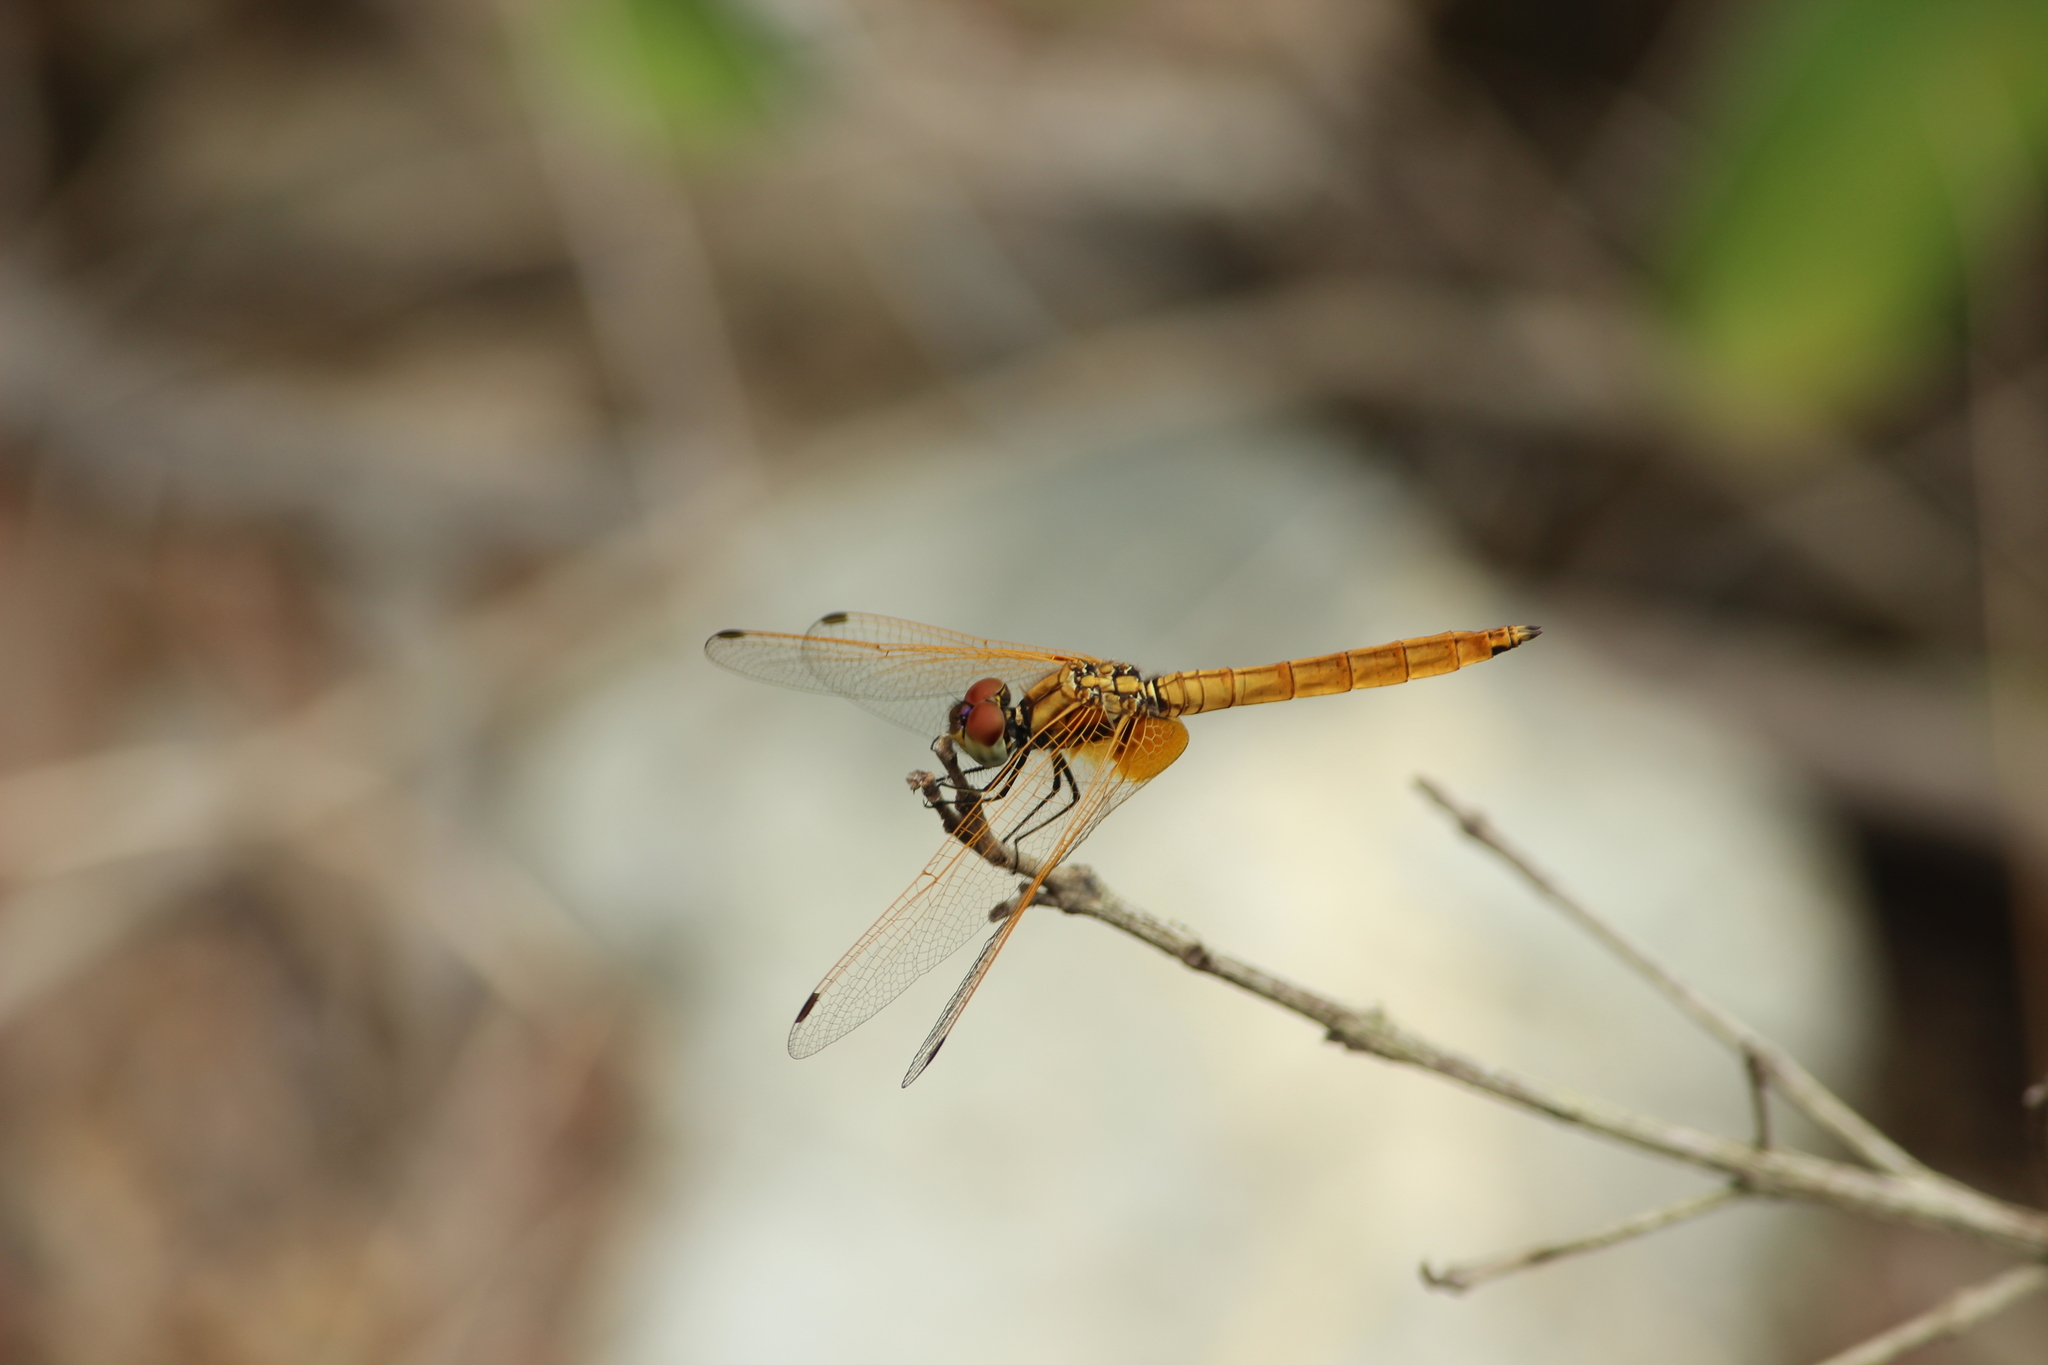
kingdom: Animalia
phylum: Arthropoda
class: Insecta
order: Odonata
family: Libellulidae
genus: Trithemis
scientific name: Trithemis aurora
